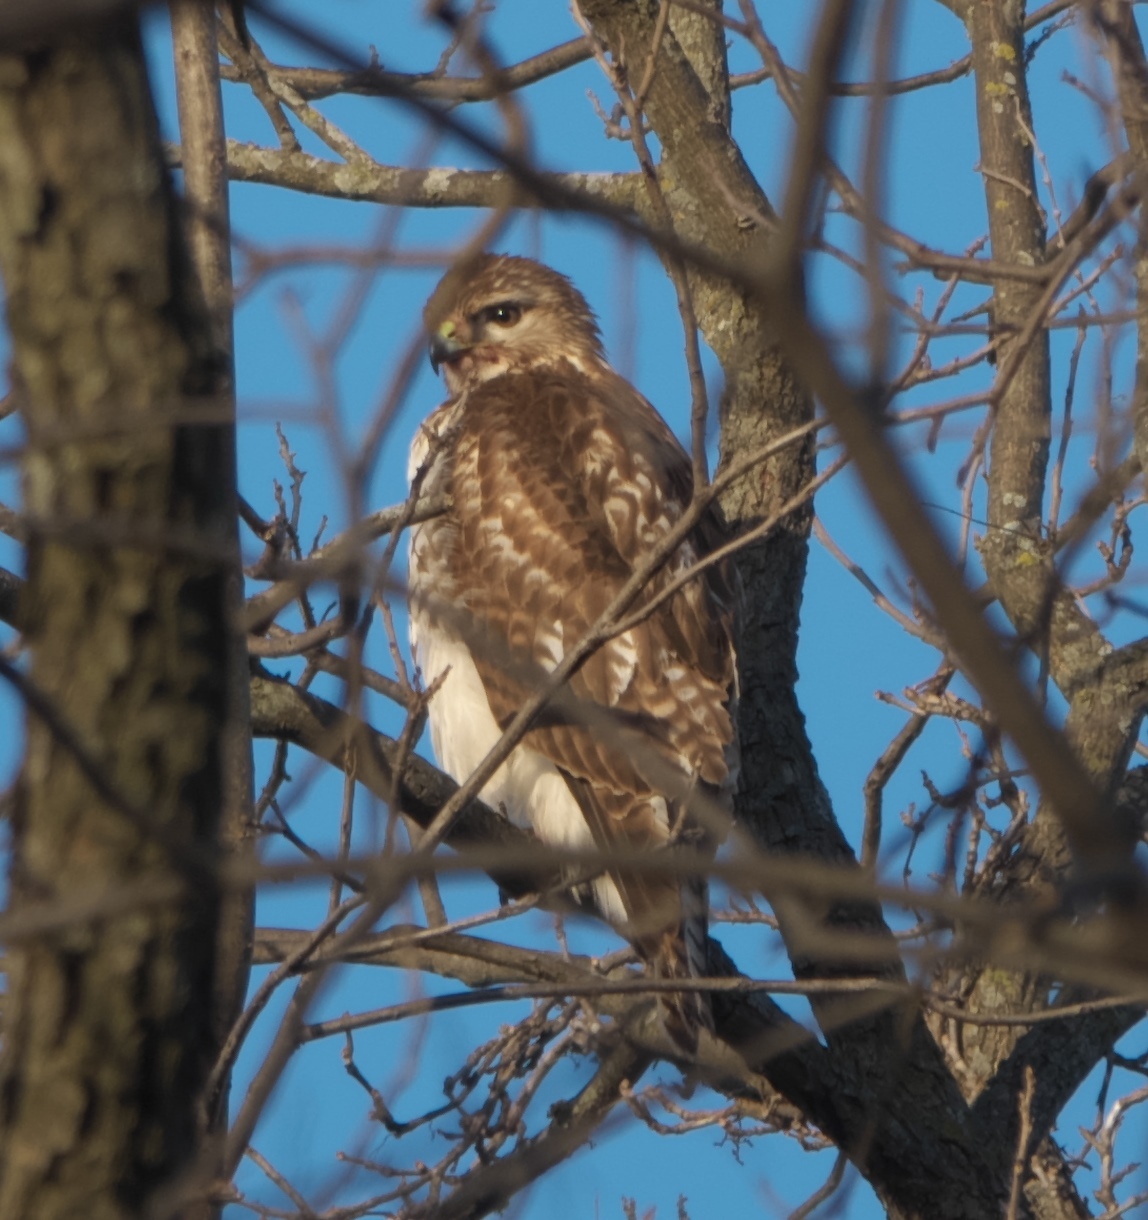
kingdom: Animalia
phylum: Chordata
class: Aves
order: Accipitriformes
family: Accipitridae
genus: Buteo
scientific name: Buteo jamaicensis
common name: Red-tailed hawk
